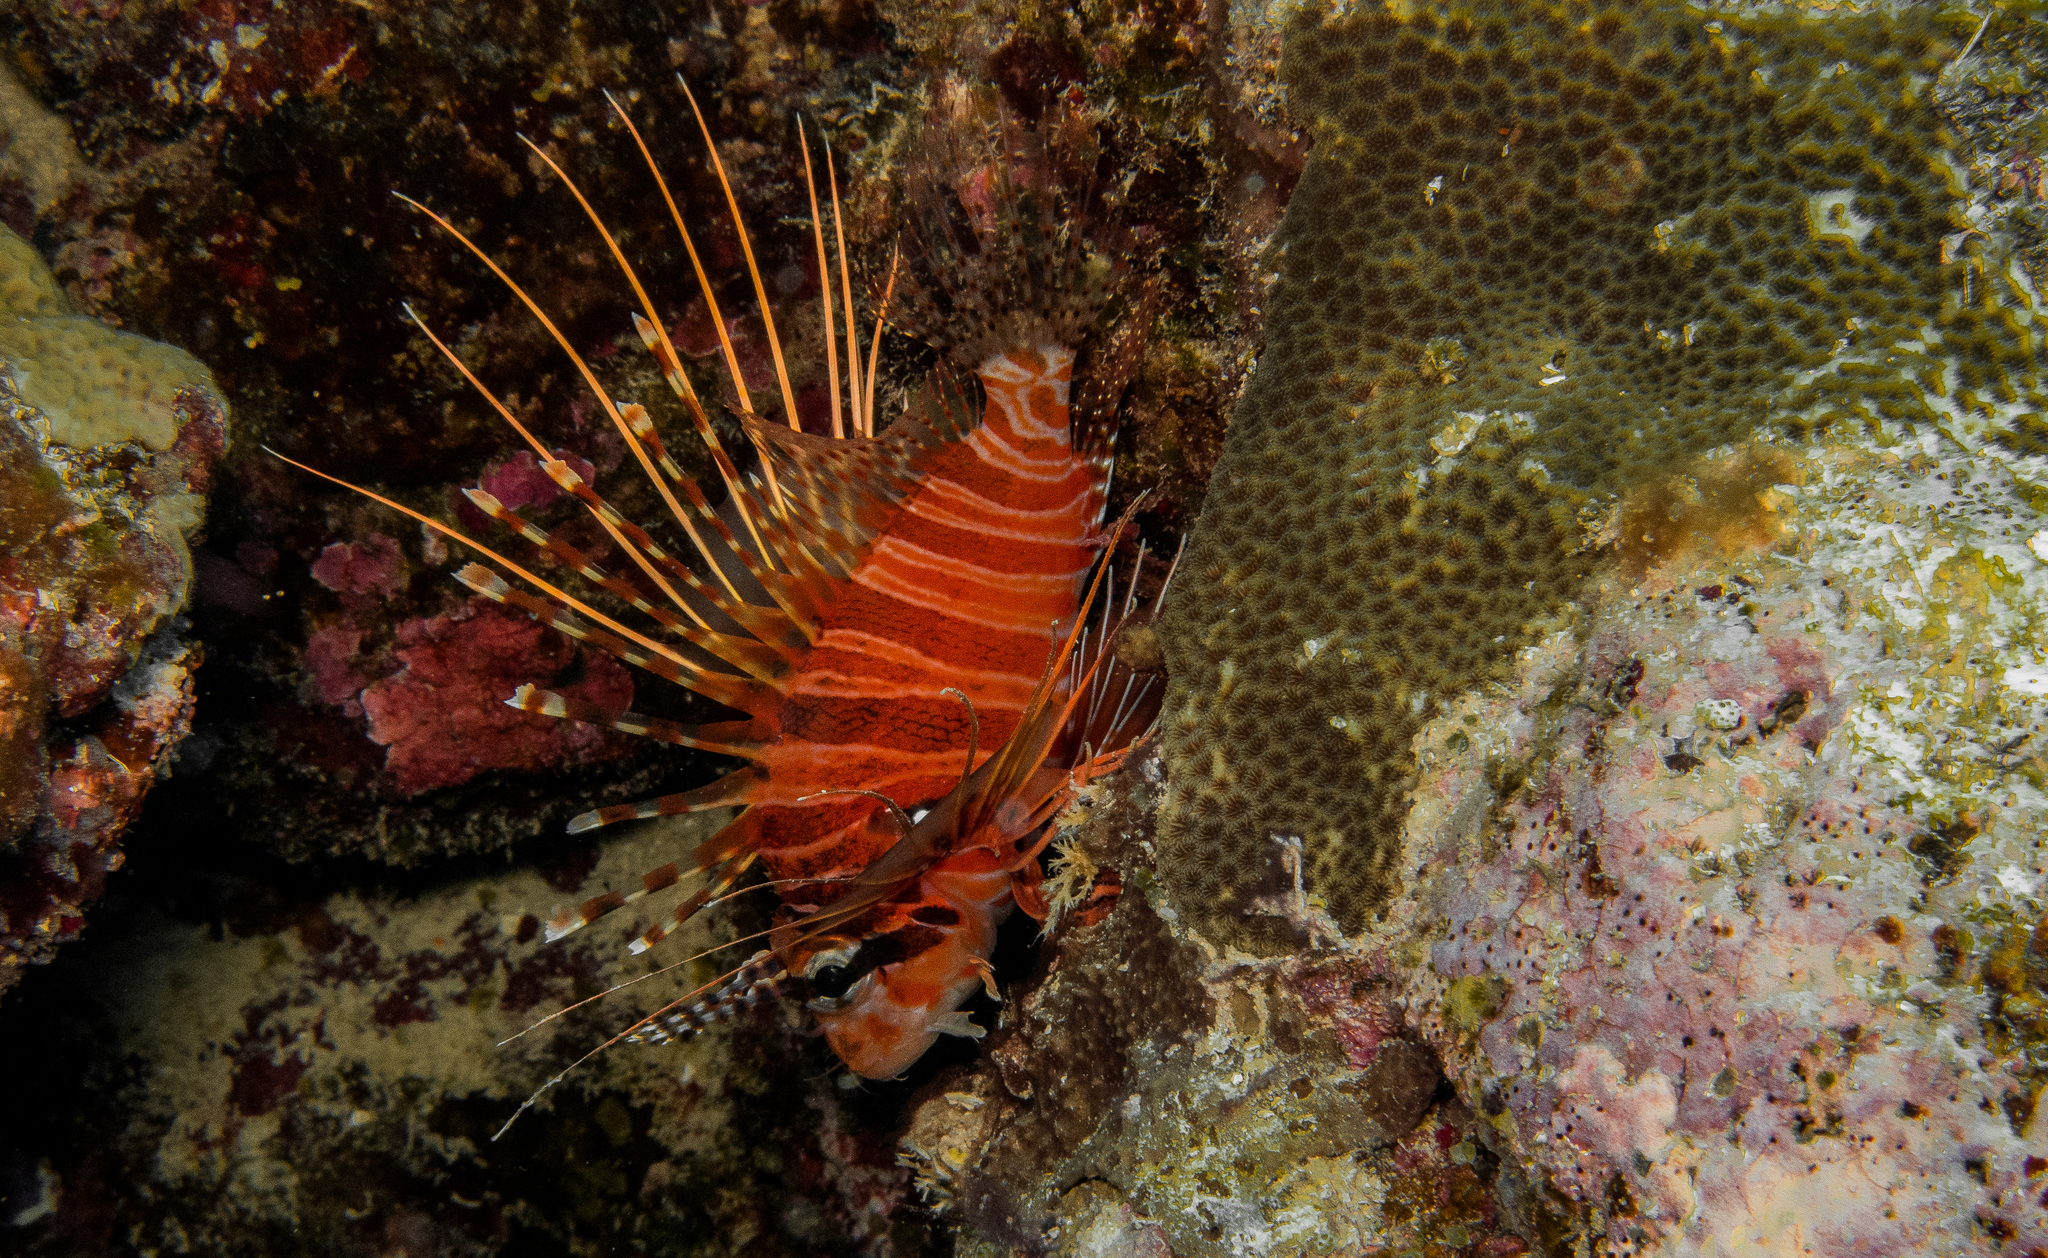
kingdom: Animalia
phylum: Chordata
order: Scorpaeniformes
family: Scorpaenidae
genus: Pterois
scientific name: Pterois antennata
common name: Spotfin lionfish
